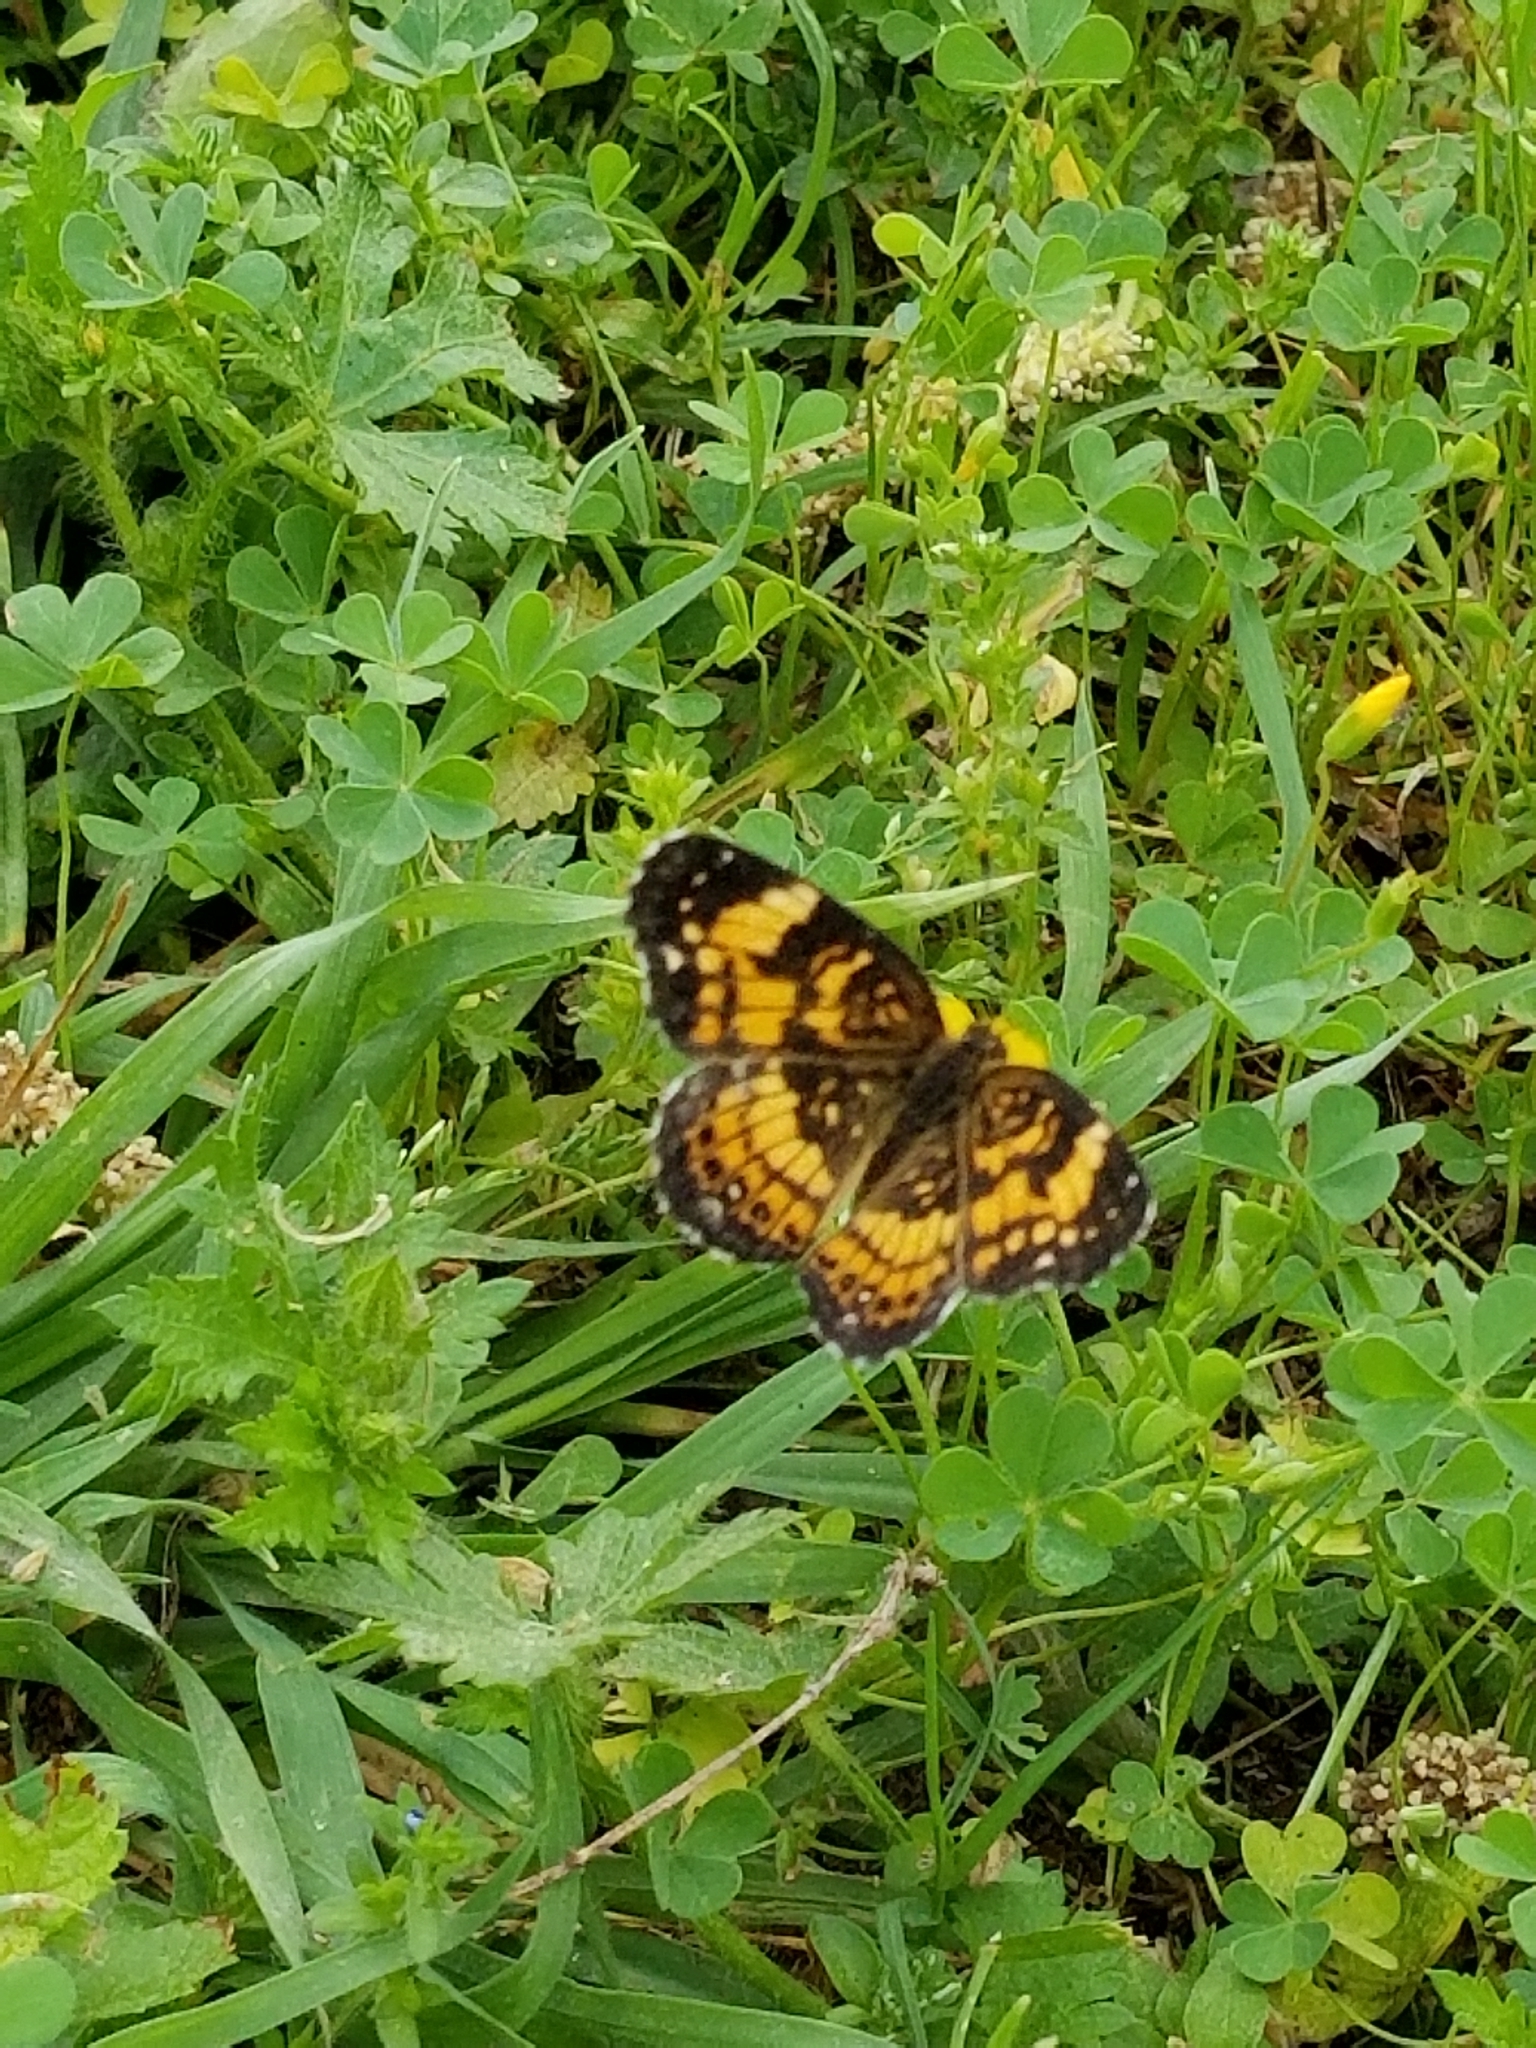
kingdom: Animalia
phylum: Arthropoda
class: Insecta
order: Lepidoptera
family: Nymphalidae
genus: Chlosyne
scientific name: Chlosyne nycteis
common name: Silvery checkerspot
